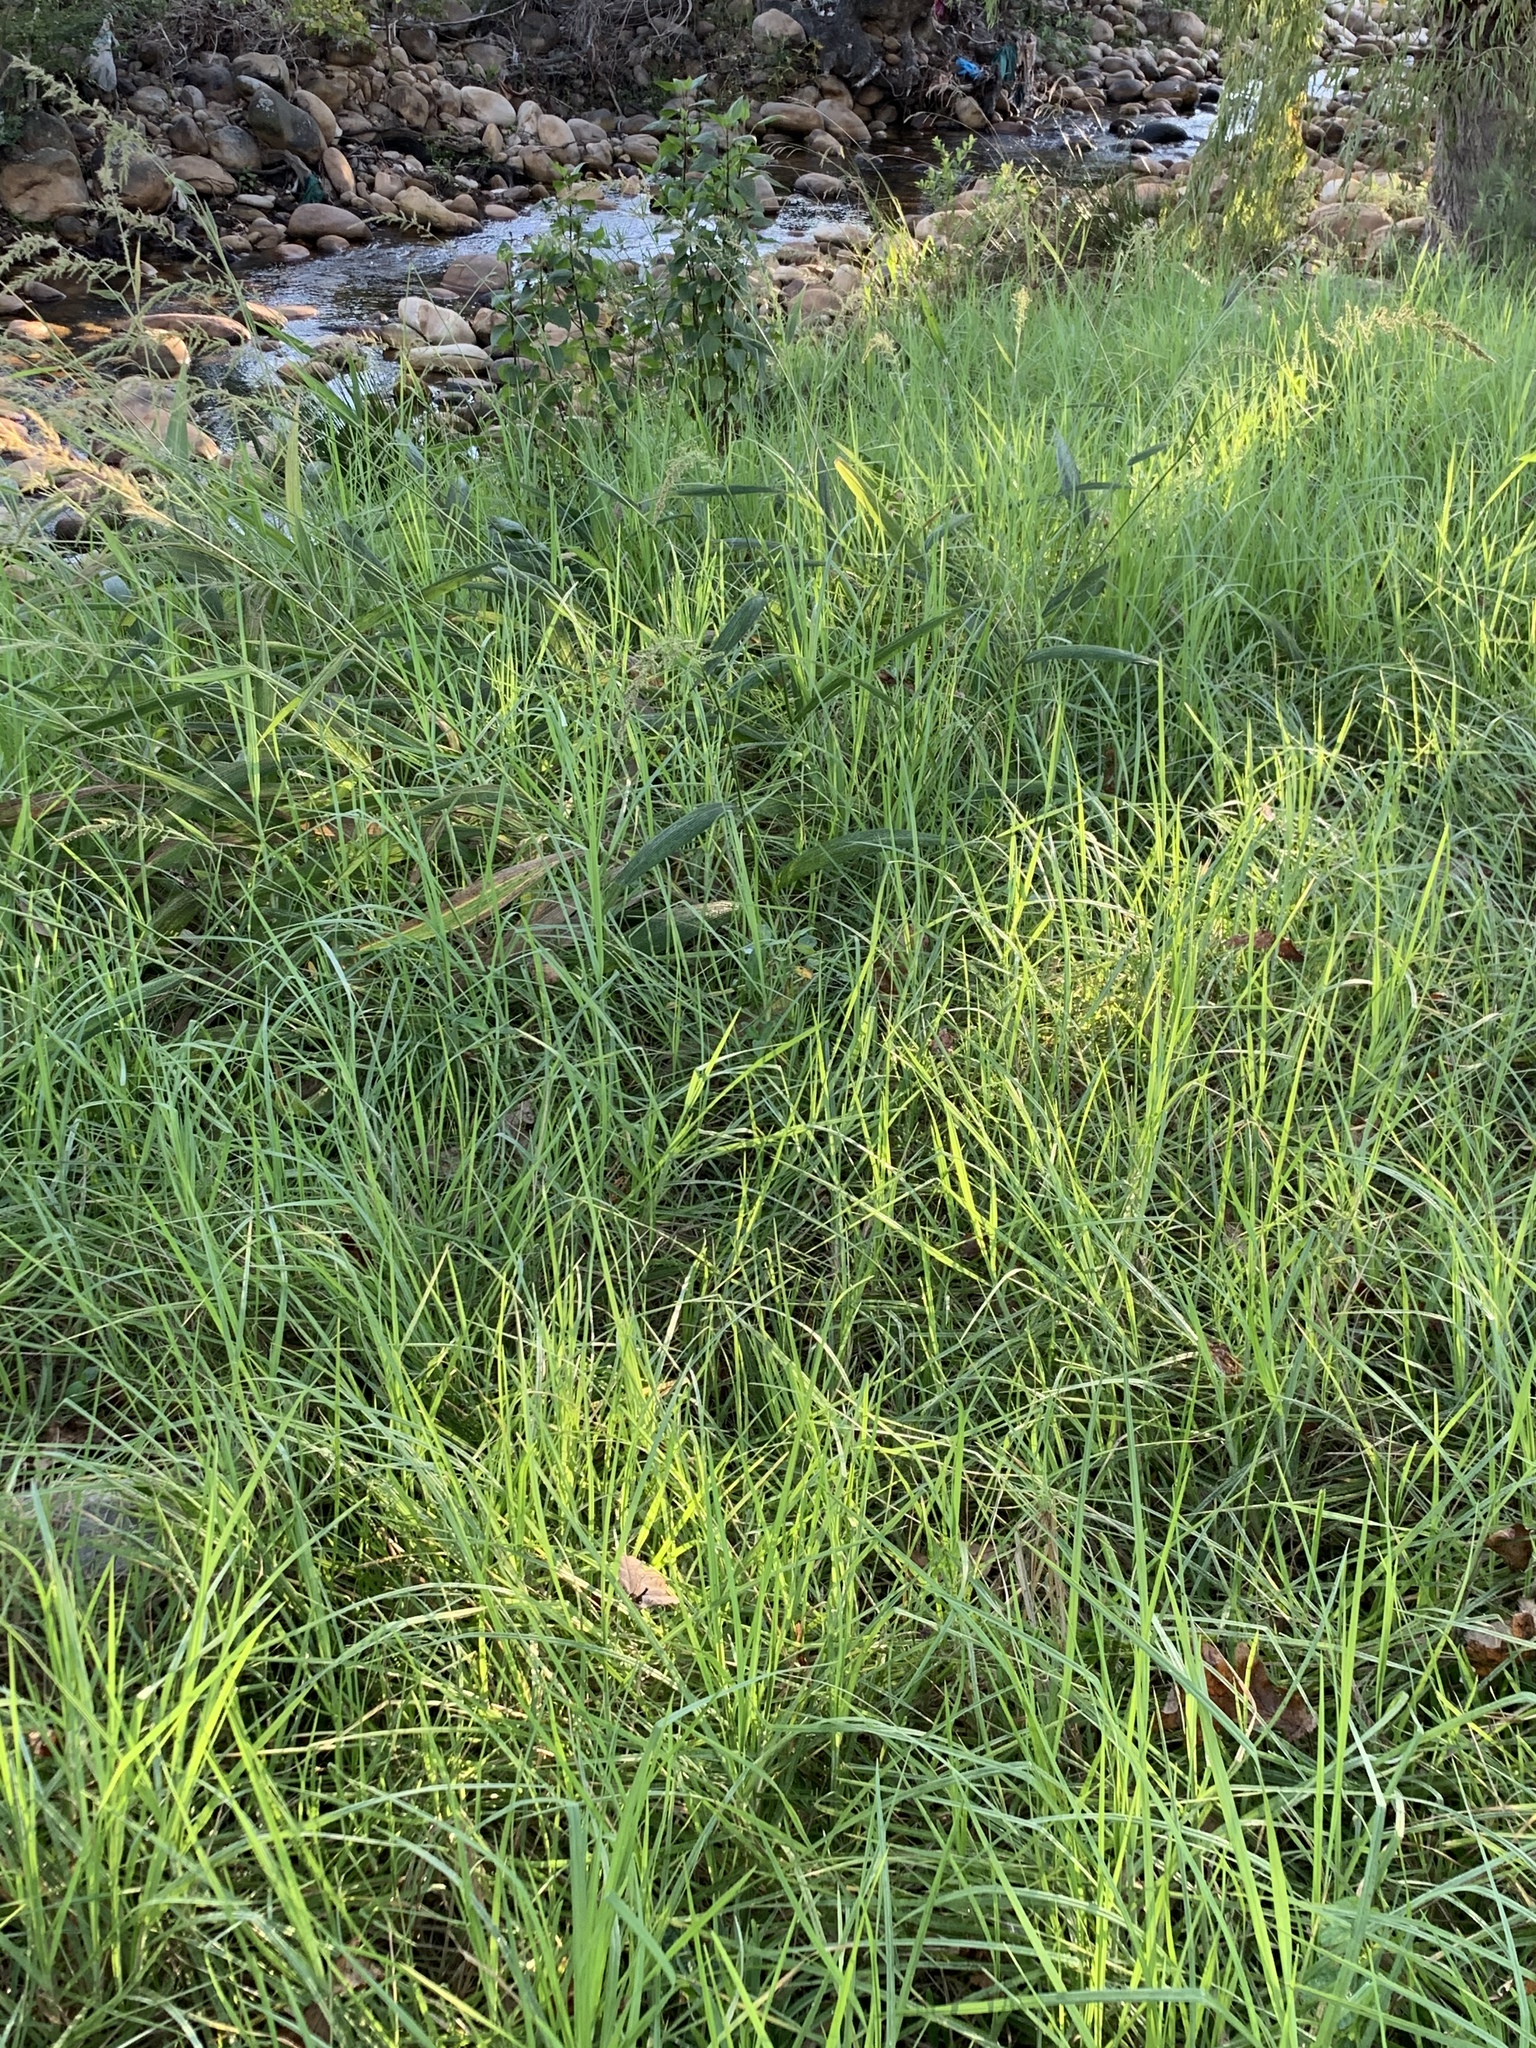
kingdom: Plantae
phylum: Tracheophyta
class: Liliopsida
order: Poales
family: Poaceae
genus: Cenchrus
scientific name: Cenchrus clandestinus
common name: Kikuyugrass
